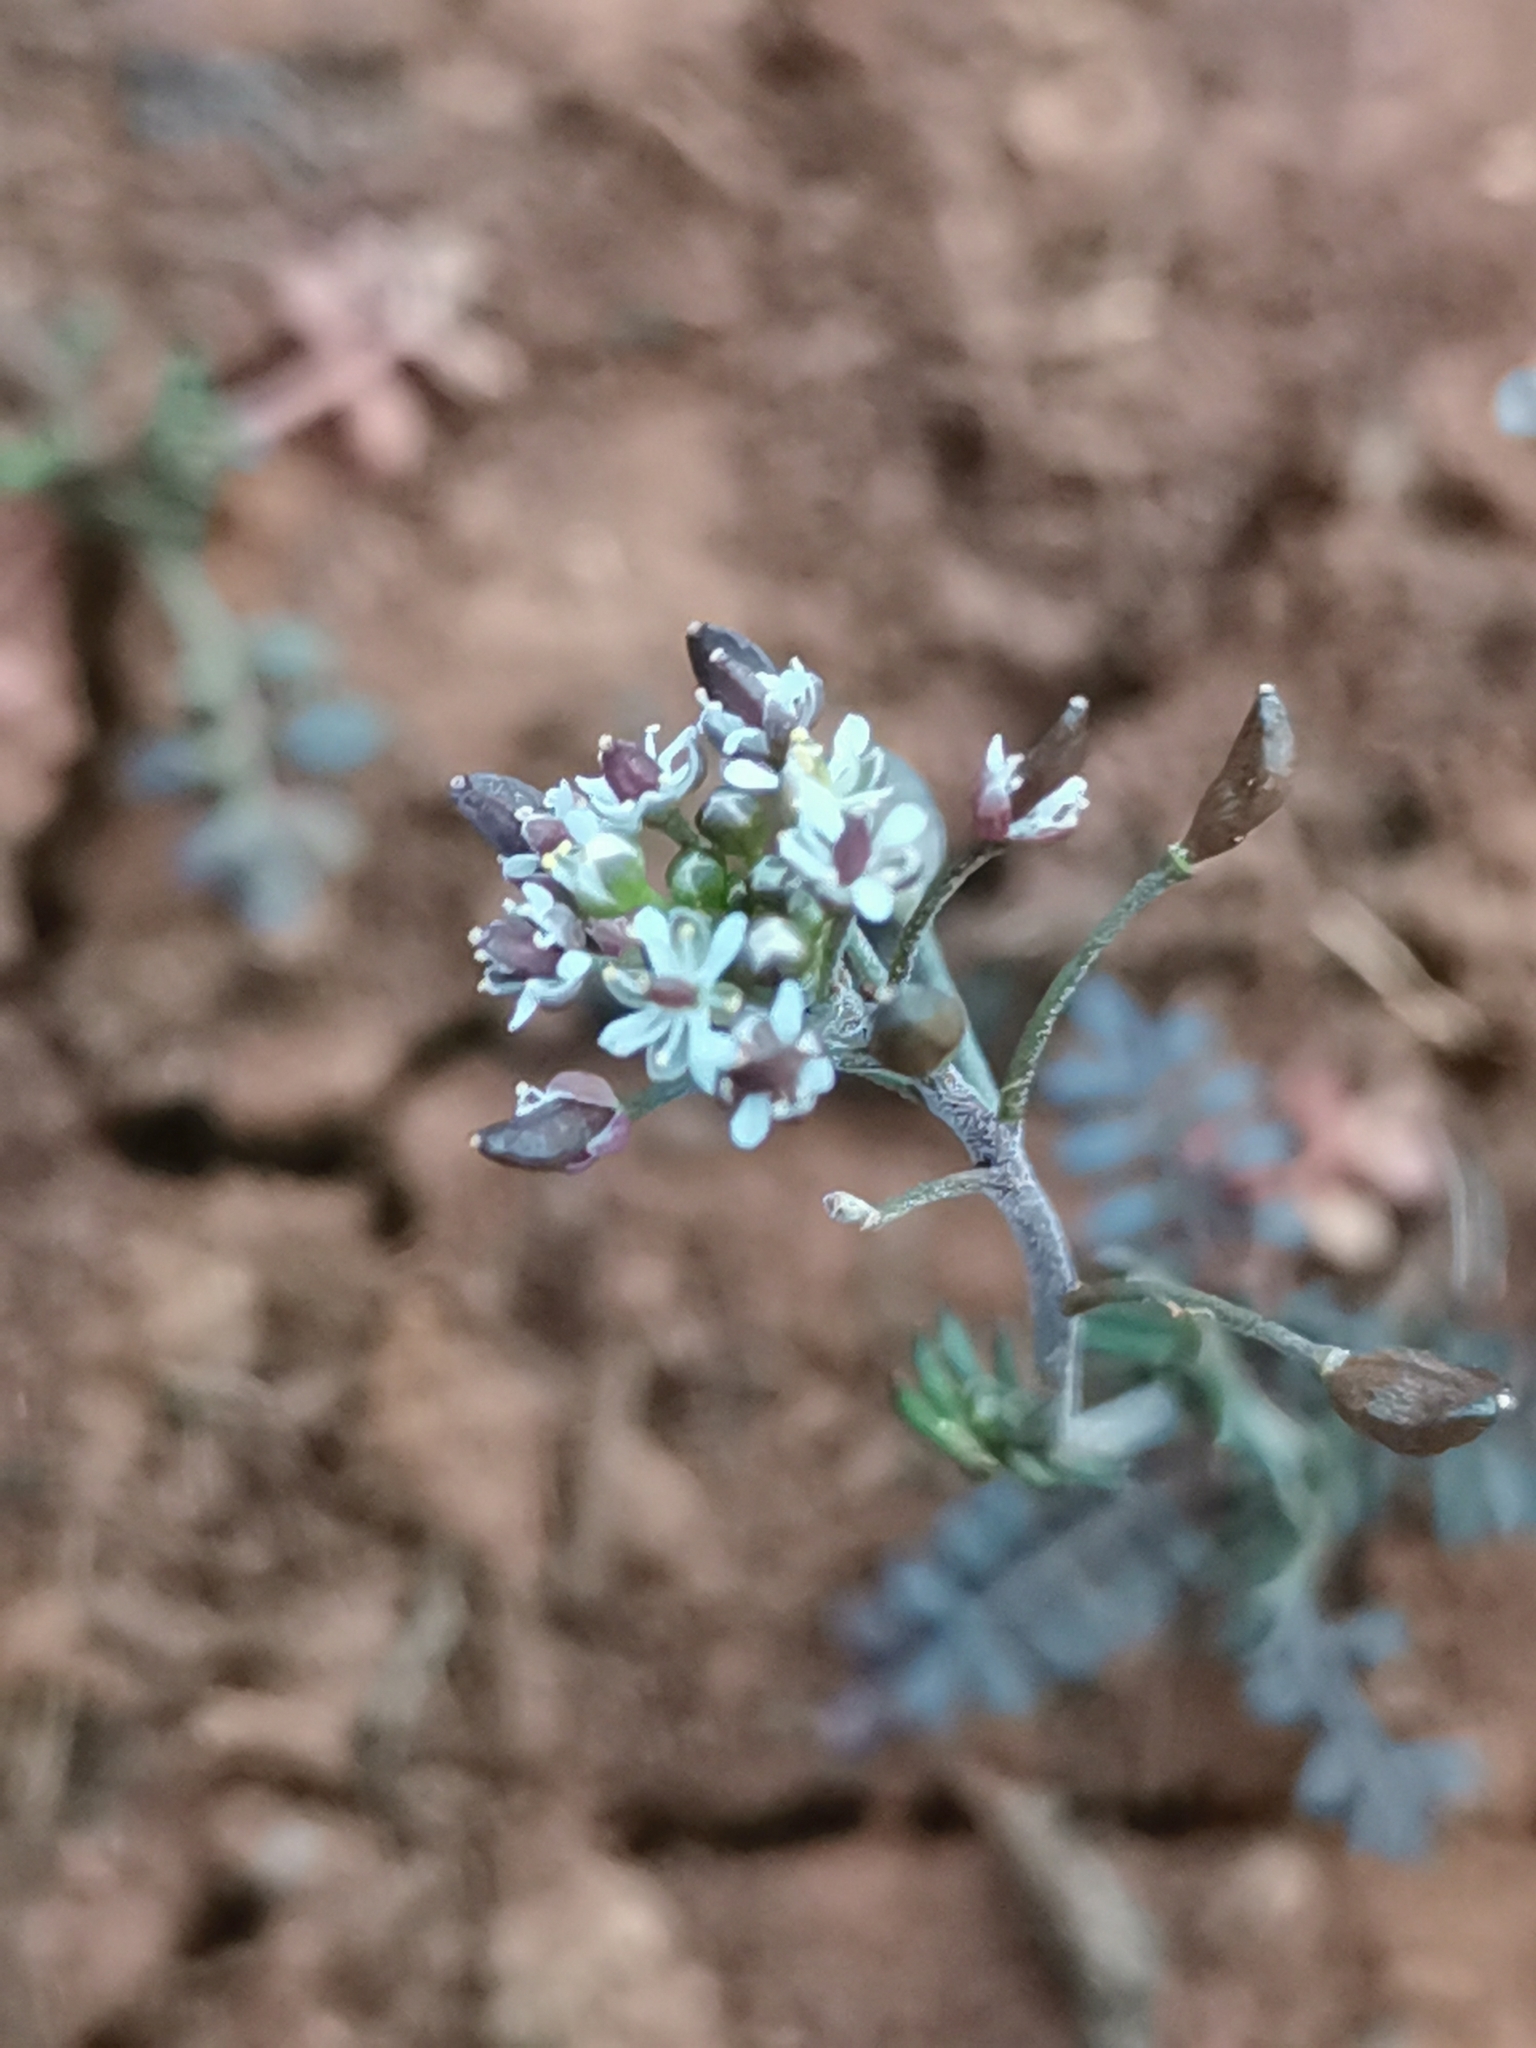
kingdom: Plantae
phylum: Tracheophyta
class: Magnoliopsida
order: Brassicales
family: Brassicaceae
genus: Hornungia
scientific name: Hornungia petraea
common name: Hutchinsia
